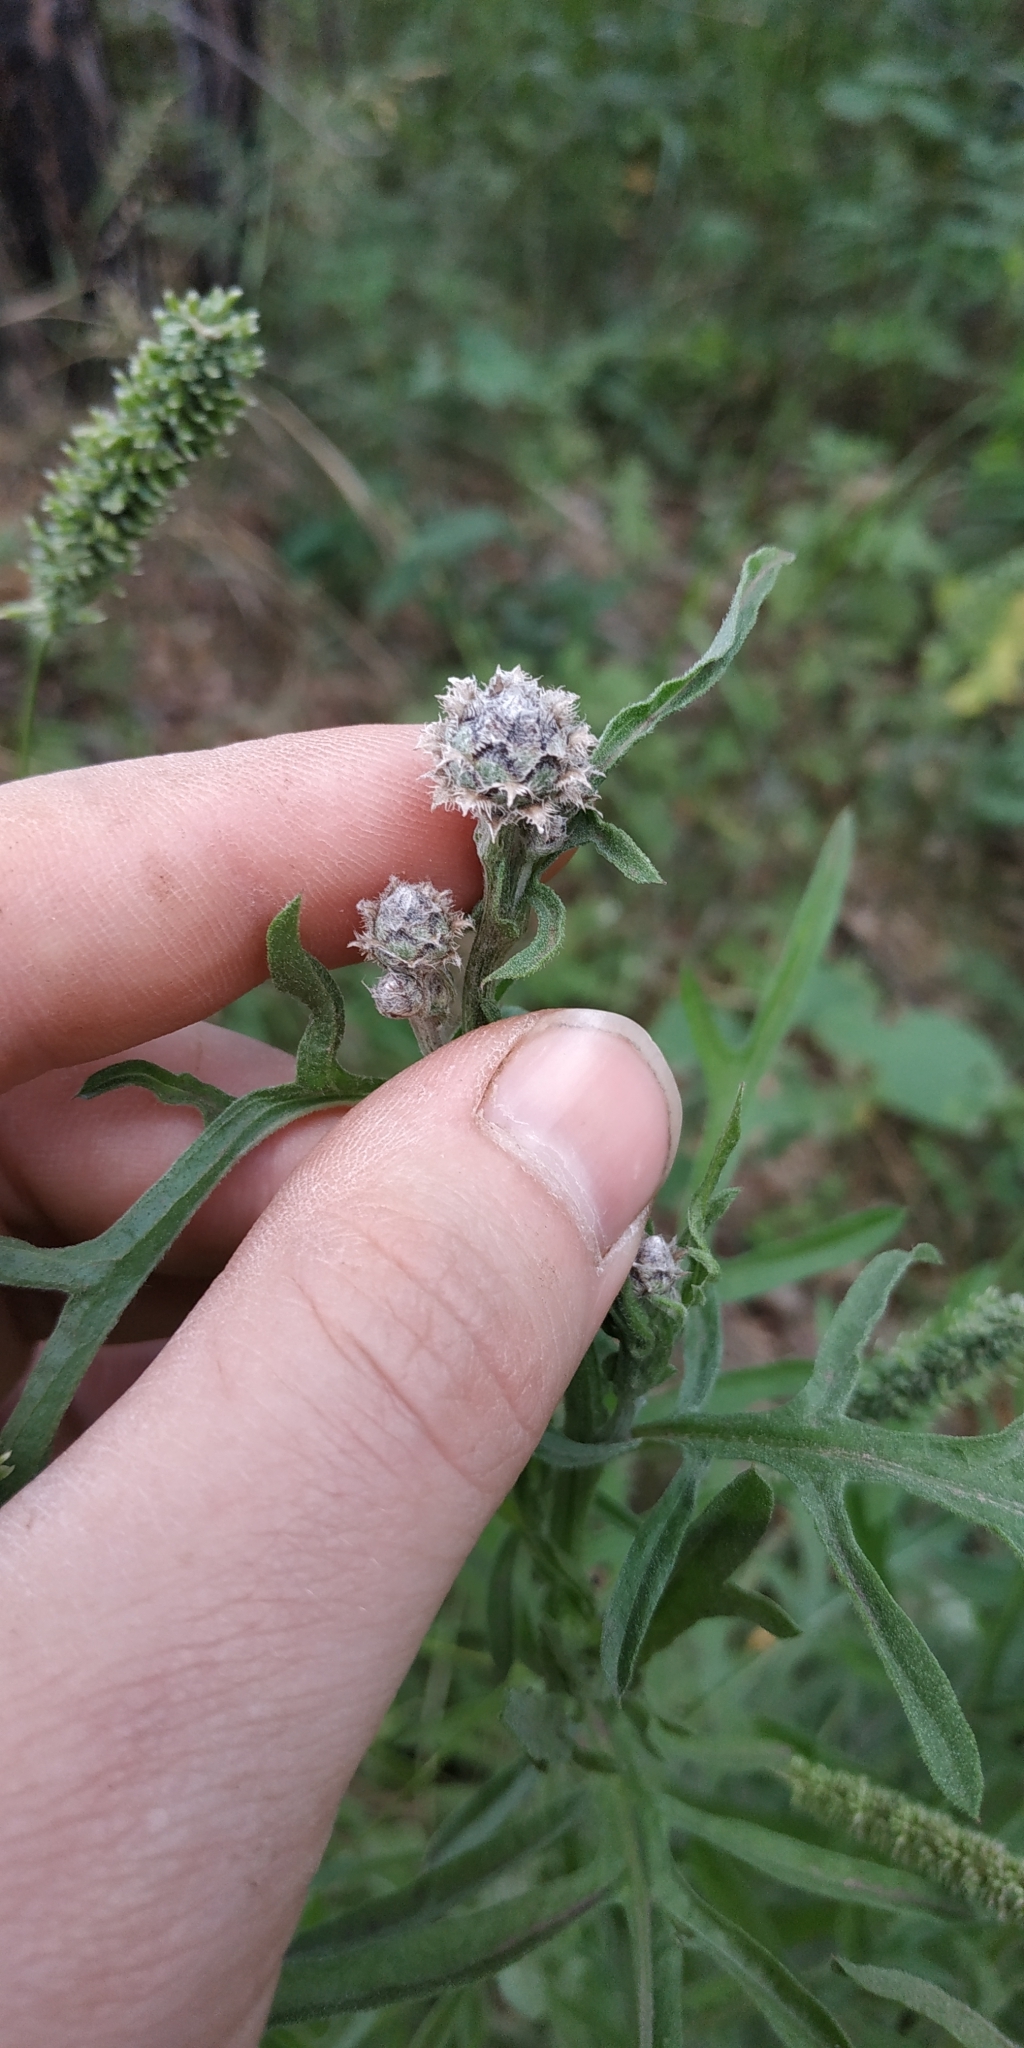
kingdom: Plantae
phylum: Tracheophyta
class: Magnoliopsida
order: Asterales
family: Asteraceae
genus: Centaurea
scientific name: Centaurea scabiosa
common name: Greater knapweed
